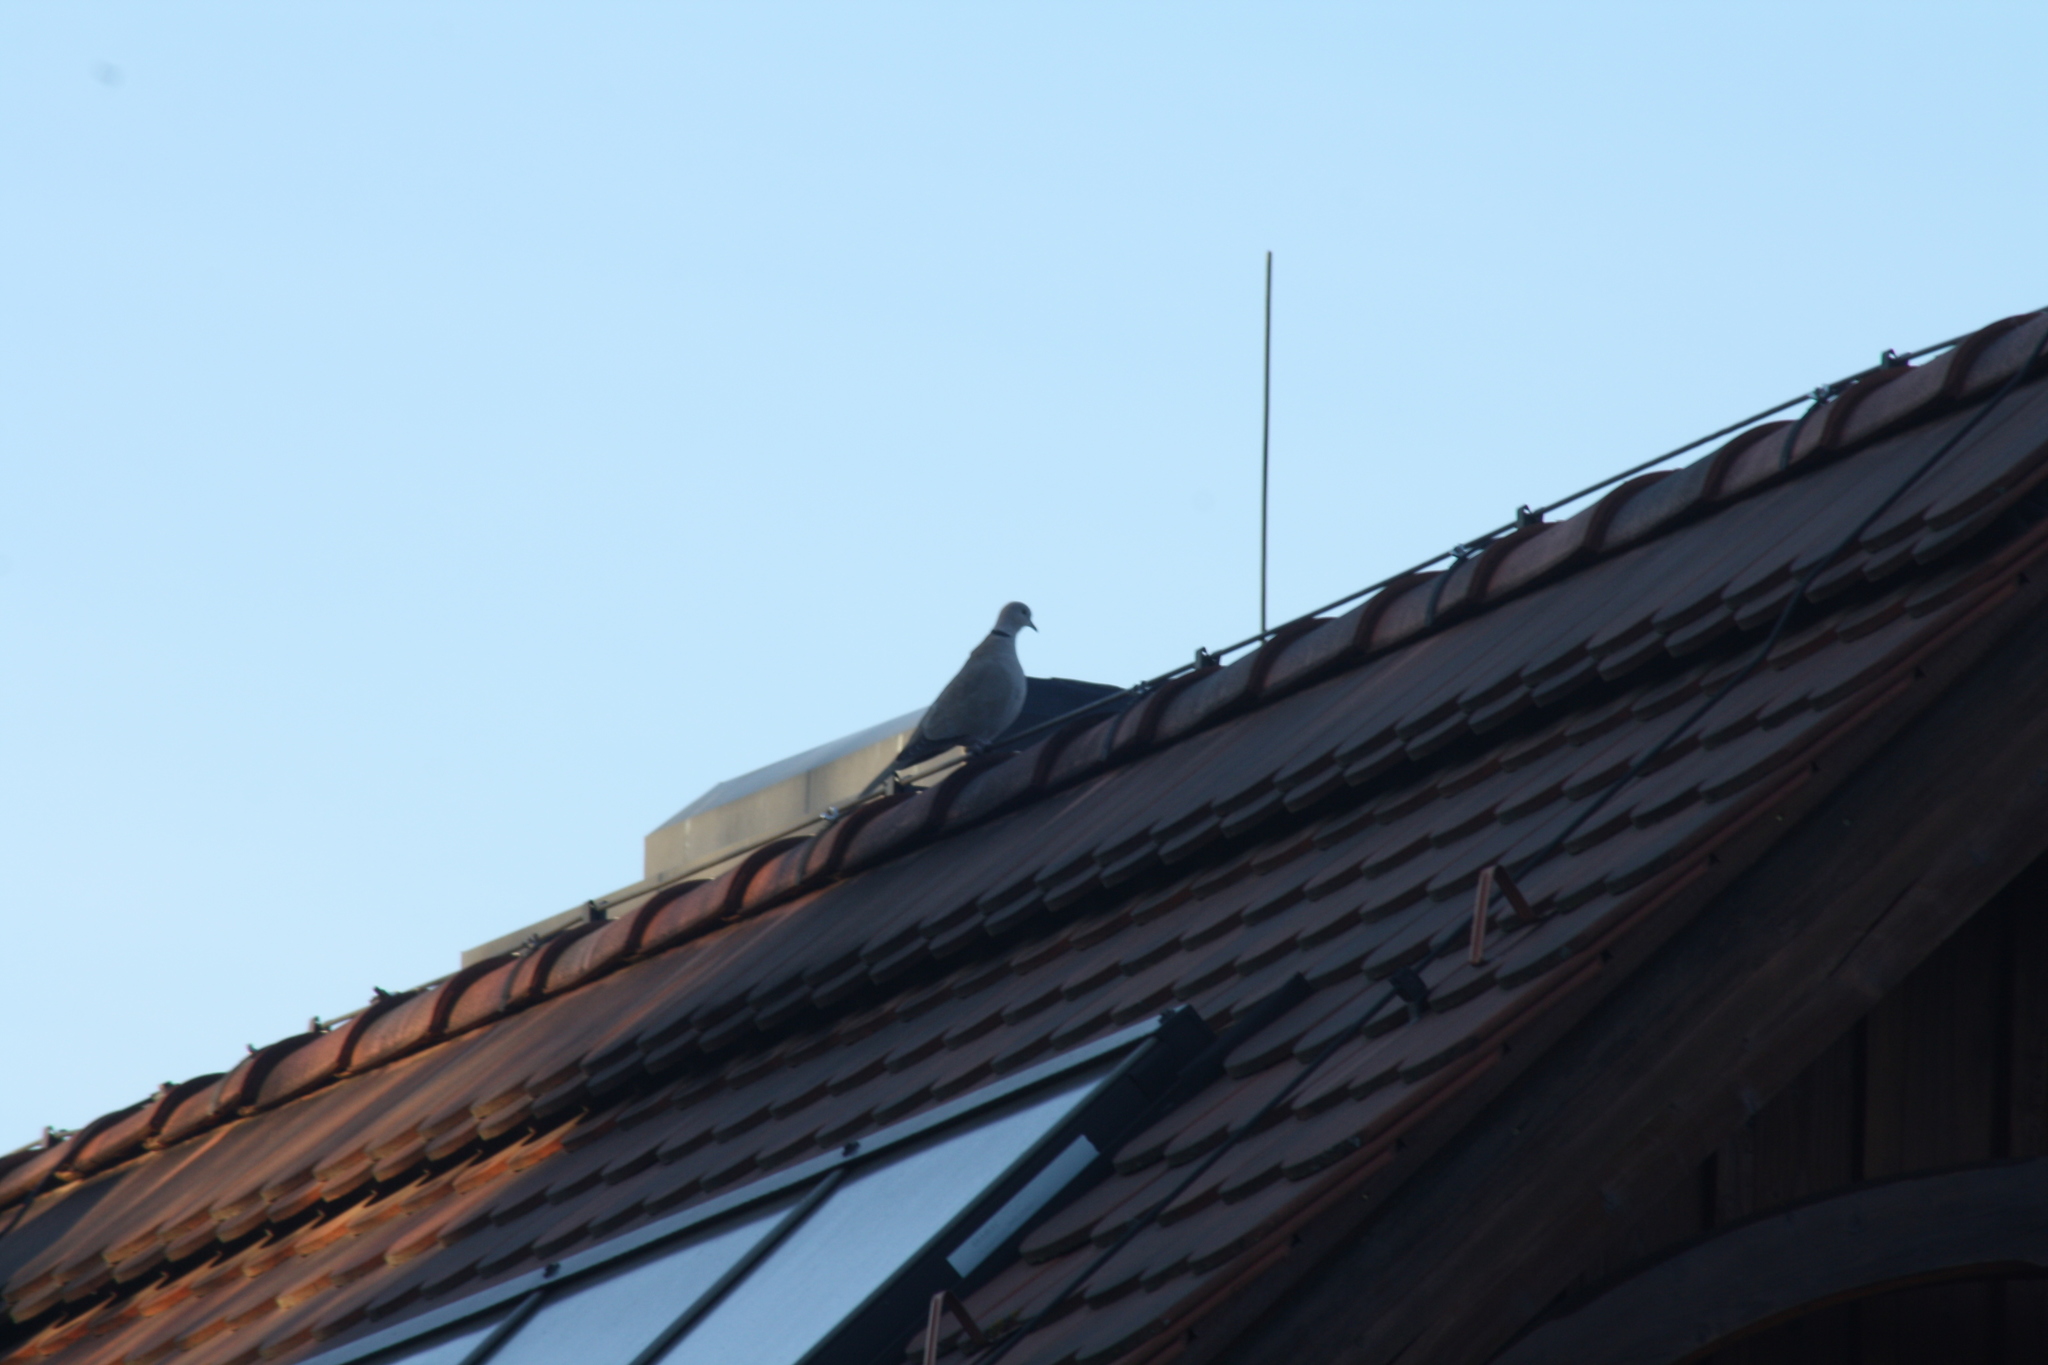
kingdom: Animalia
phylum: Chordata
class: Aves
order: Columbiformes
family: Columbidae
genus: Streptopelia
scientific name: Streptopelia decaocto
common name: Eurasian collared dove
